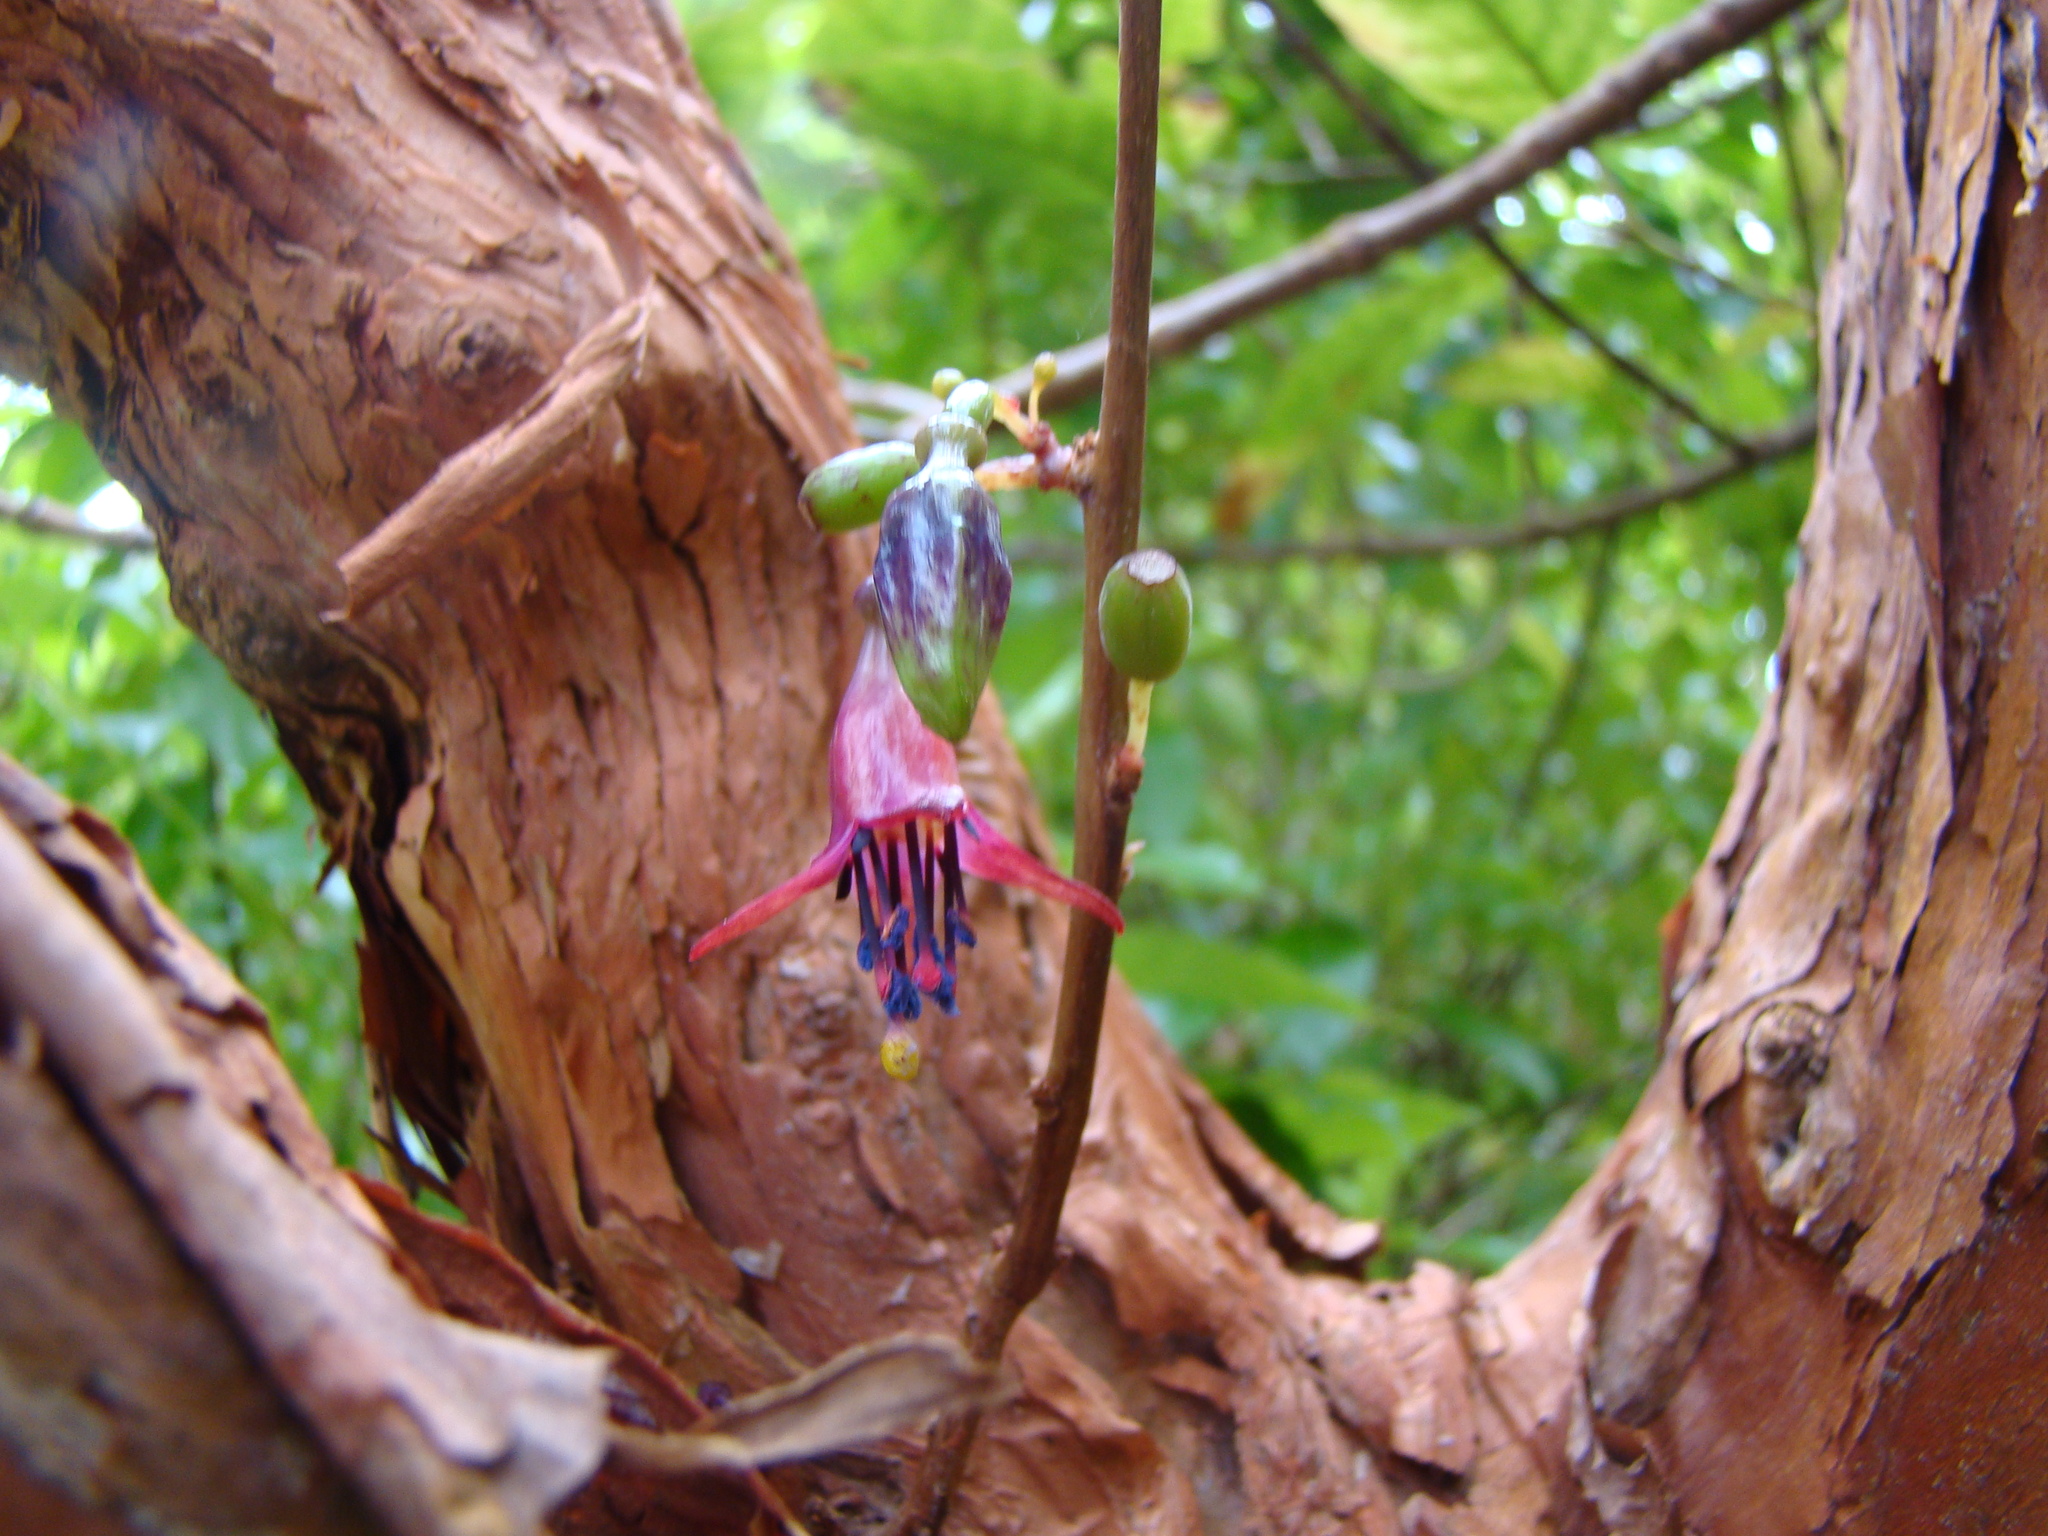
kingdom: Plantae
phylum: Tracheophyta
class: Magnoliopsida
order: Myrtales
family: Onagraceae
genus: Fuchsia
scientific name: Fuchsia excorticata
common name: Tree fuchsia
